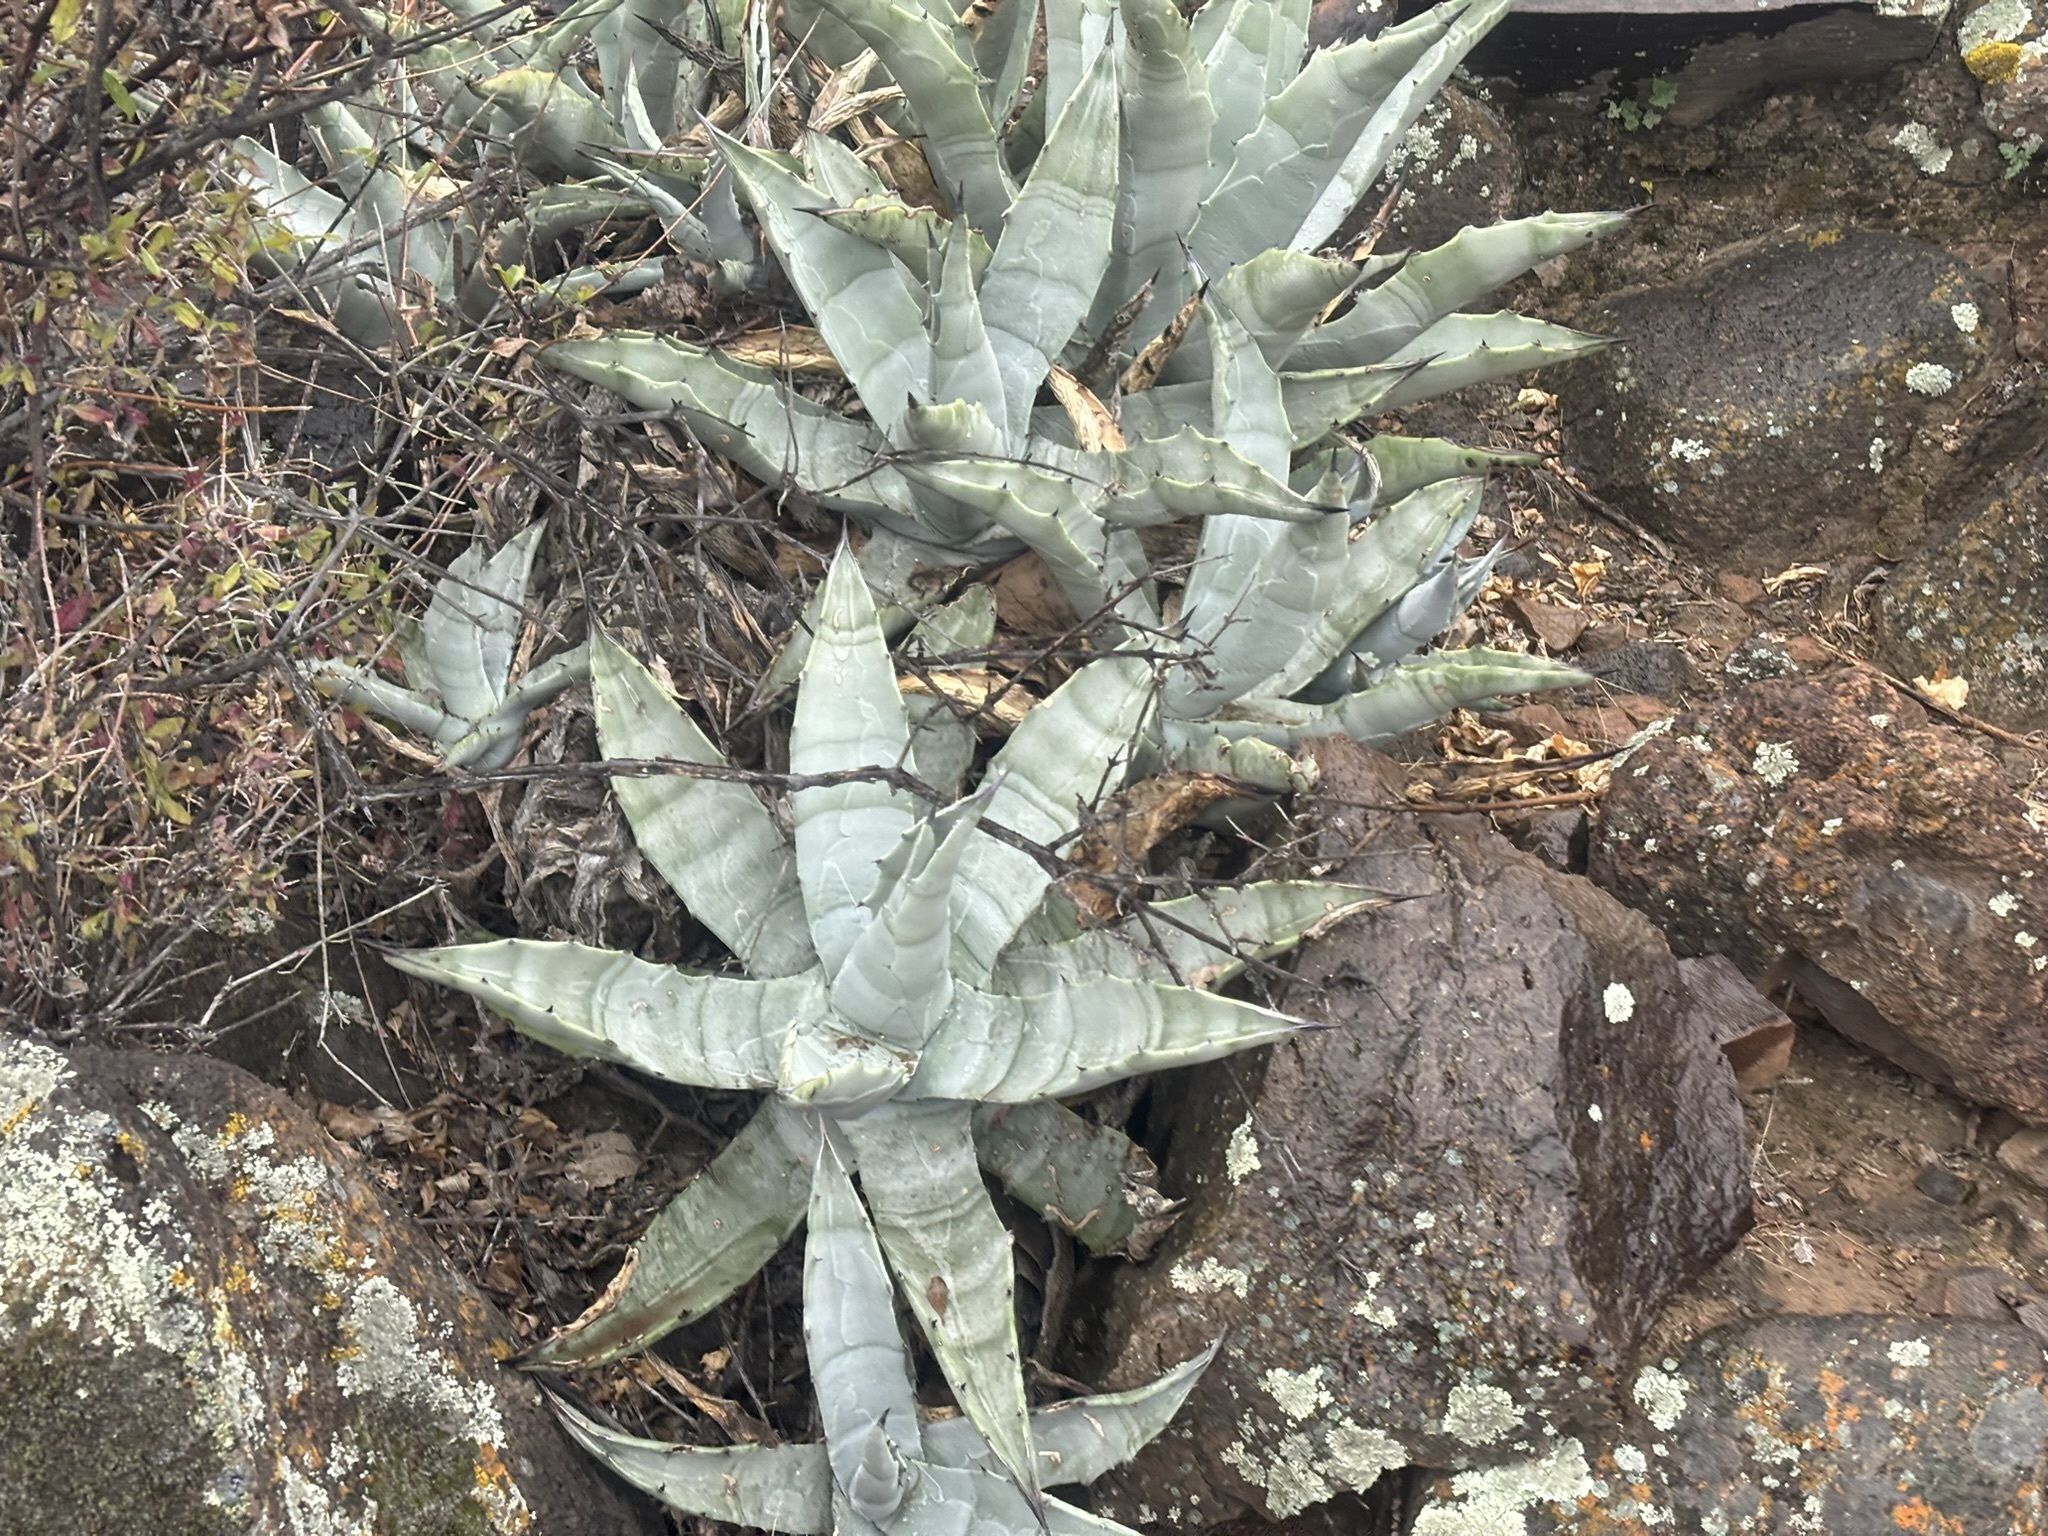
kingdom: Plantae
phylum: Tracheophyta
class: Liliopsida
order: Asparagales
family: Asparagaceae
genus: Agave
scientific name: Agave cerulata
